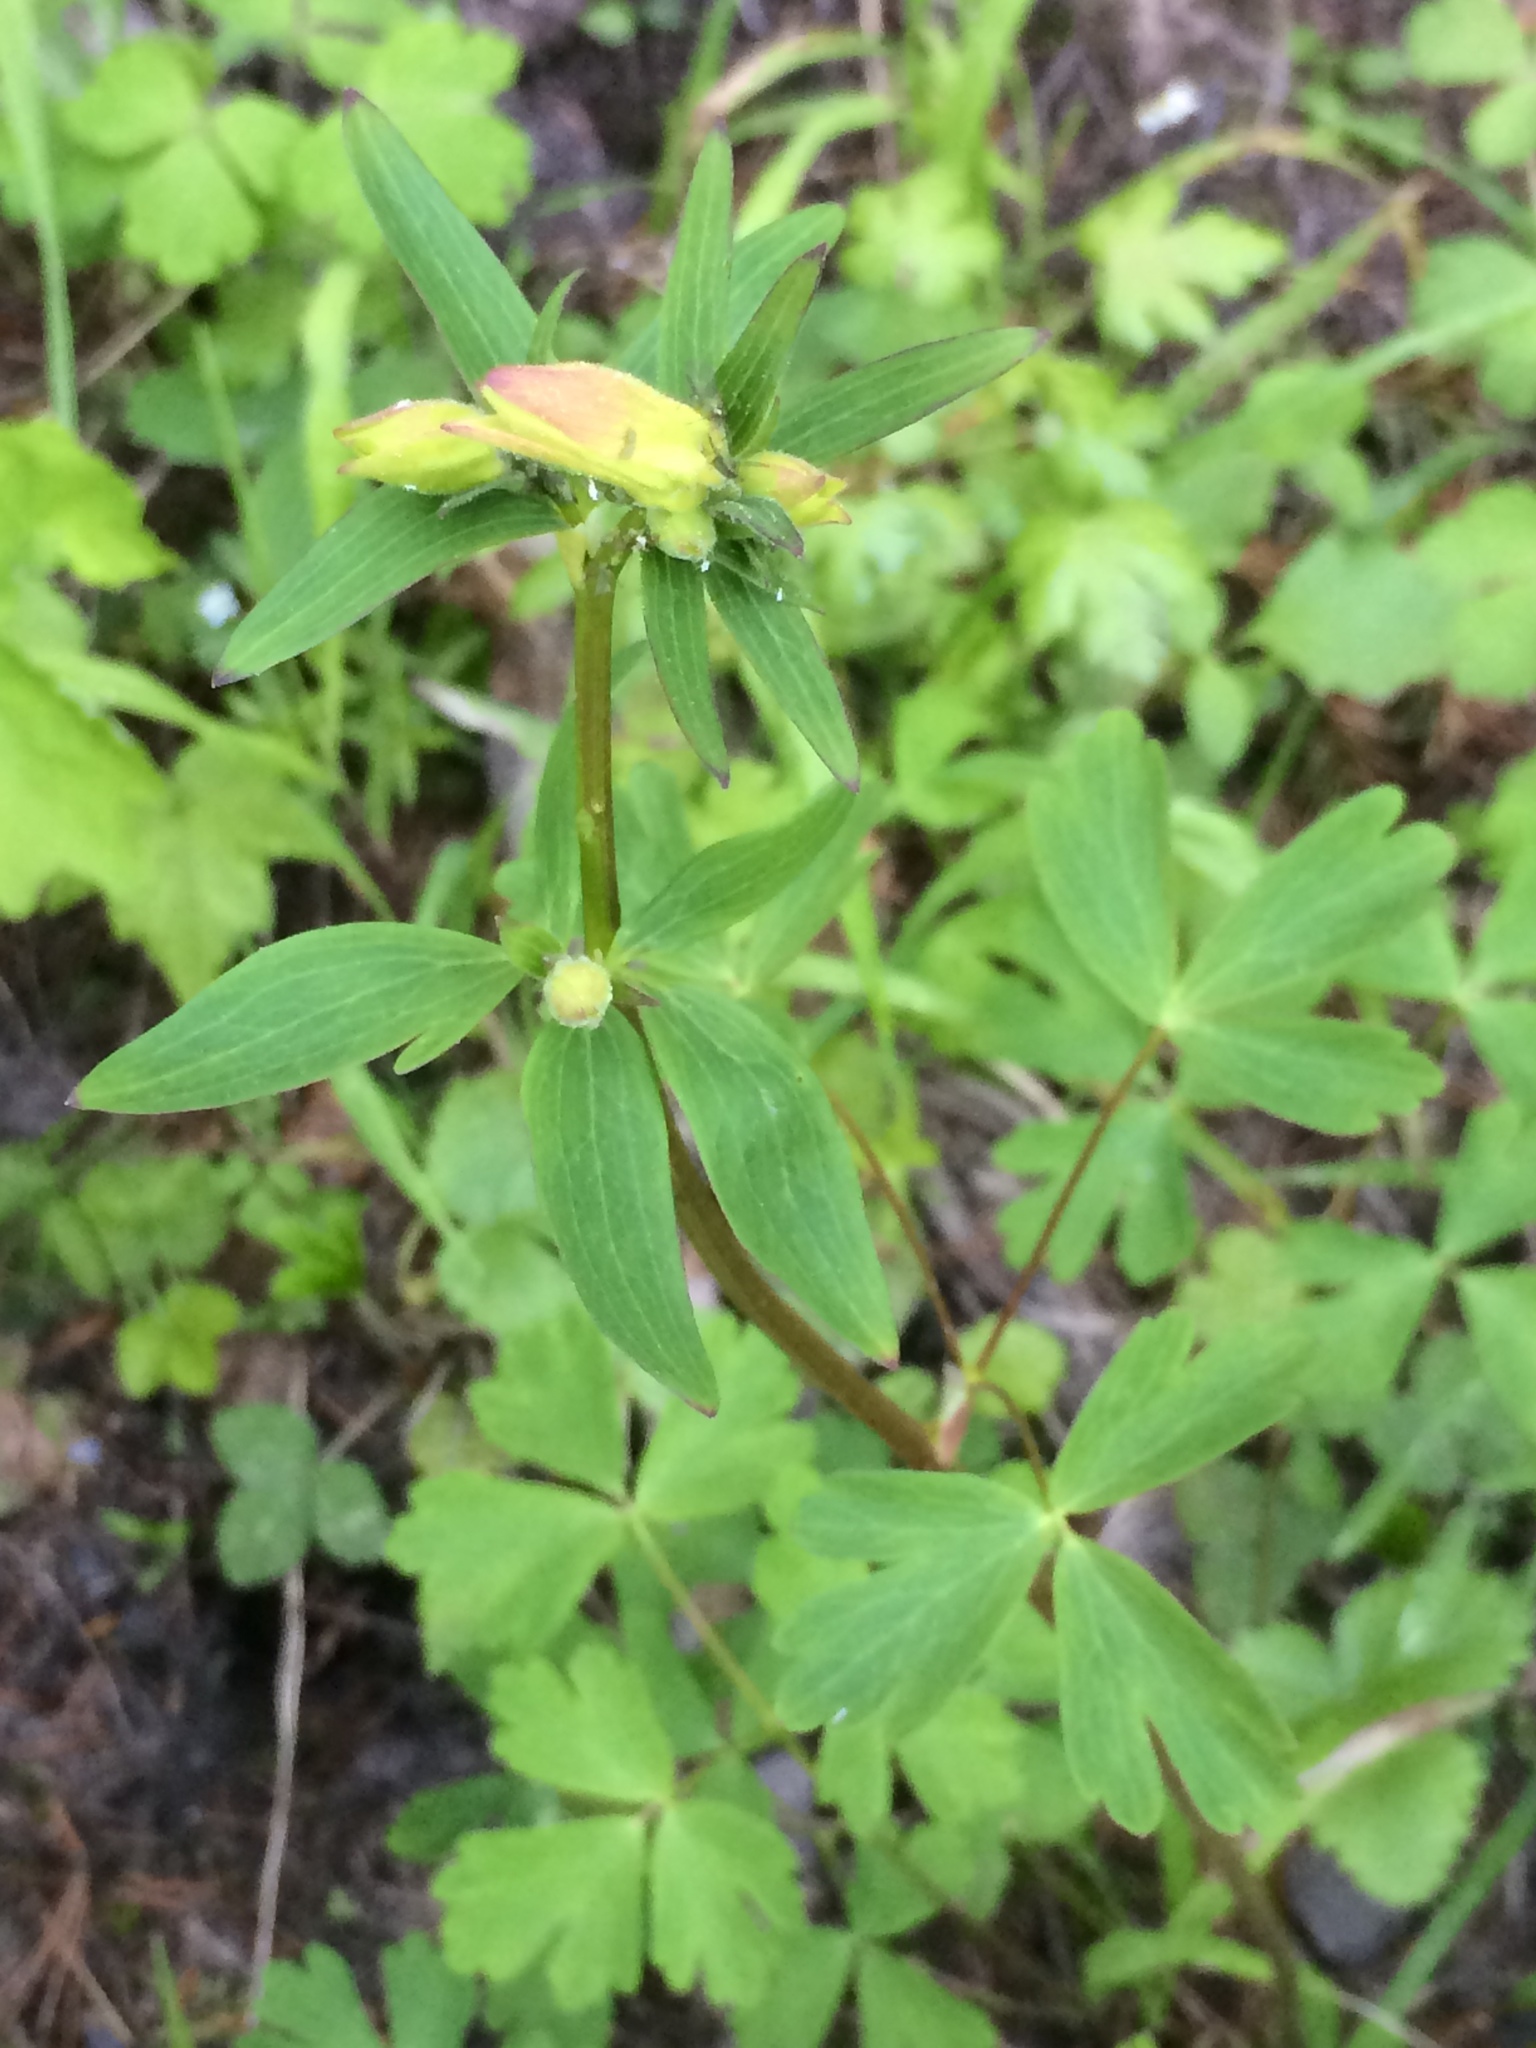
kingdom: Plantae
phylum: Tracheophyta
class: Magnoliopsida
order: Ranunculales
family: Ranunculaceae
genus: Aquilegia
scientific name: Aquilegia formosa
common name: Sitka columbine
